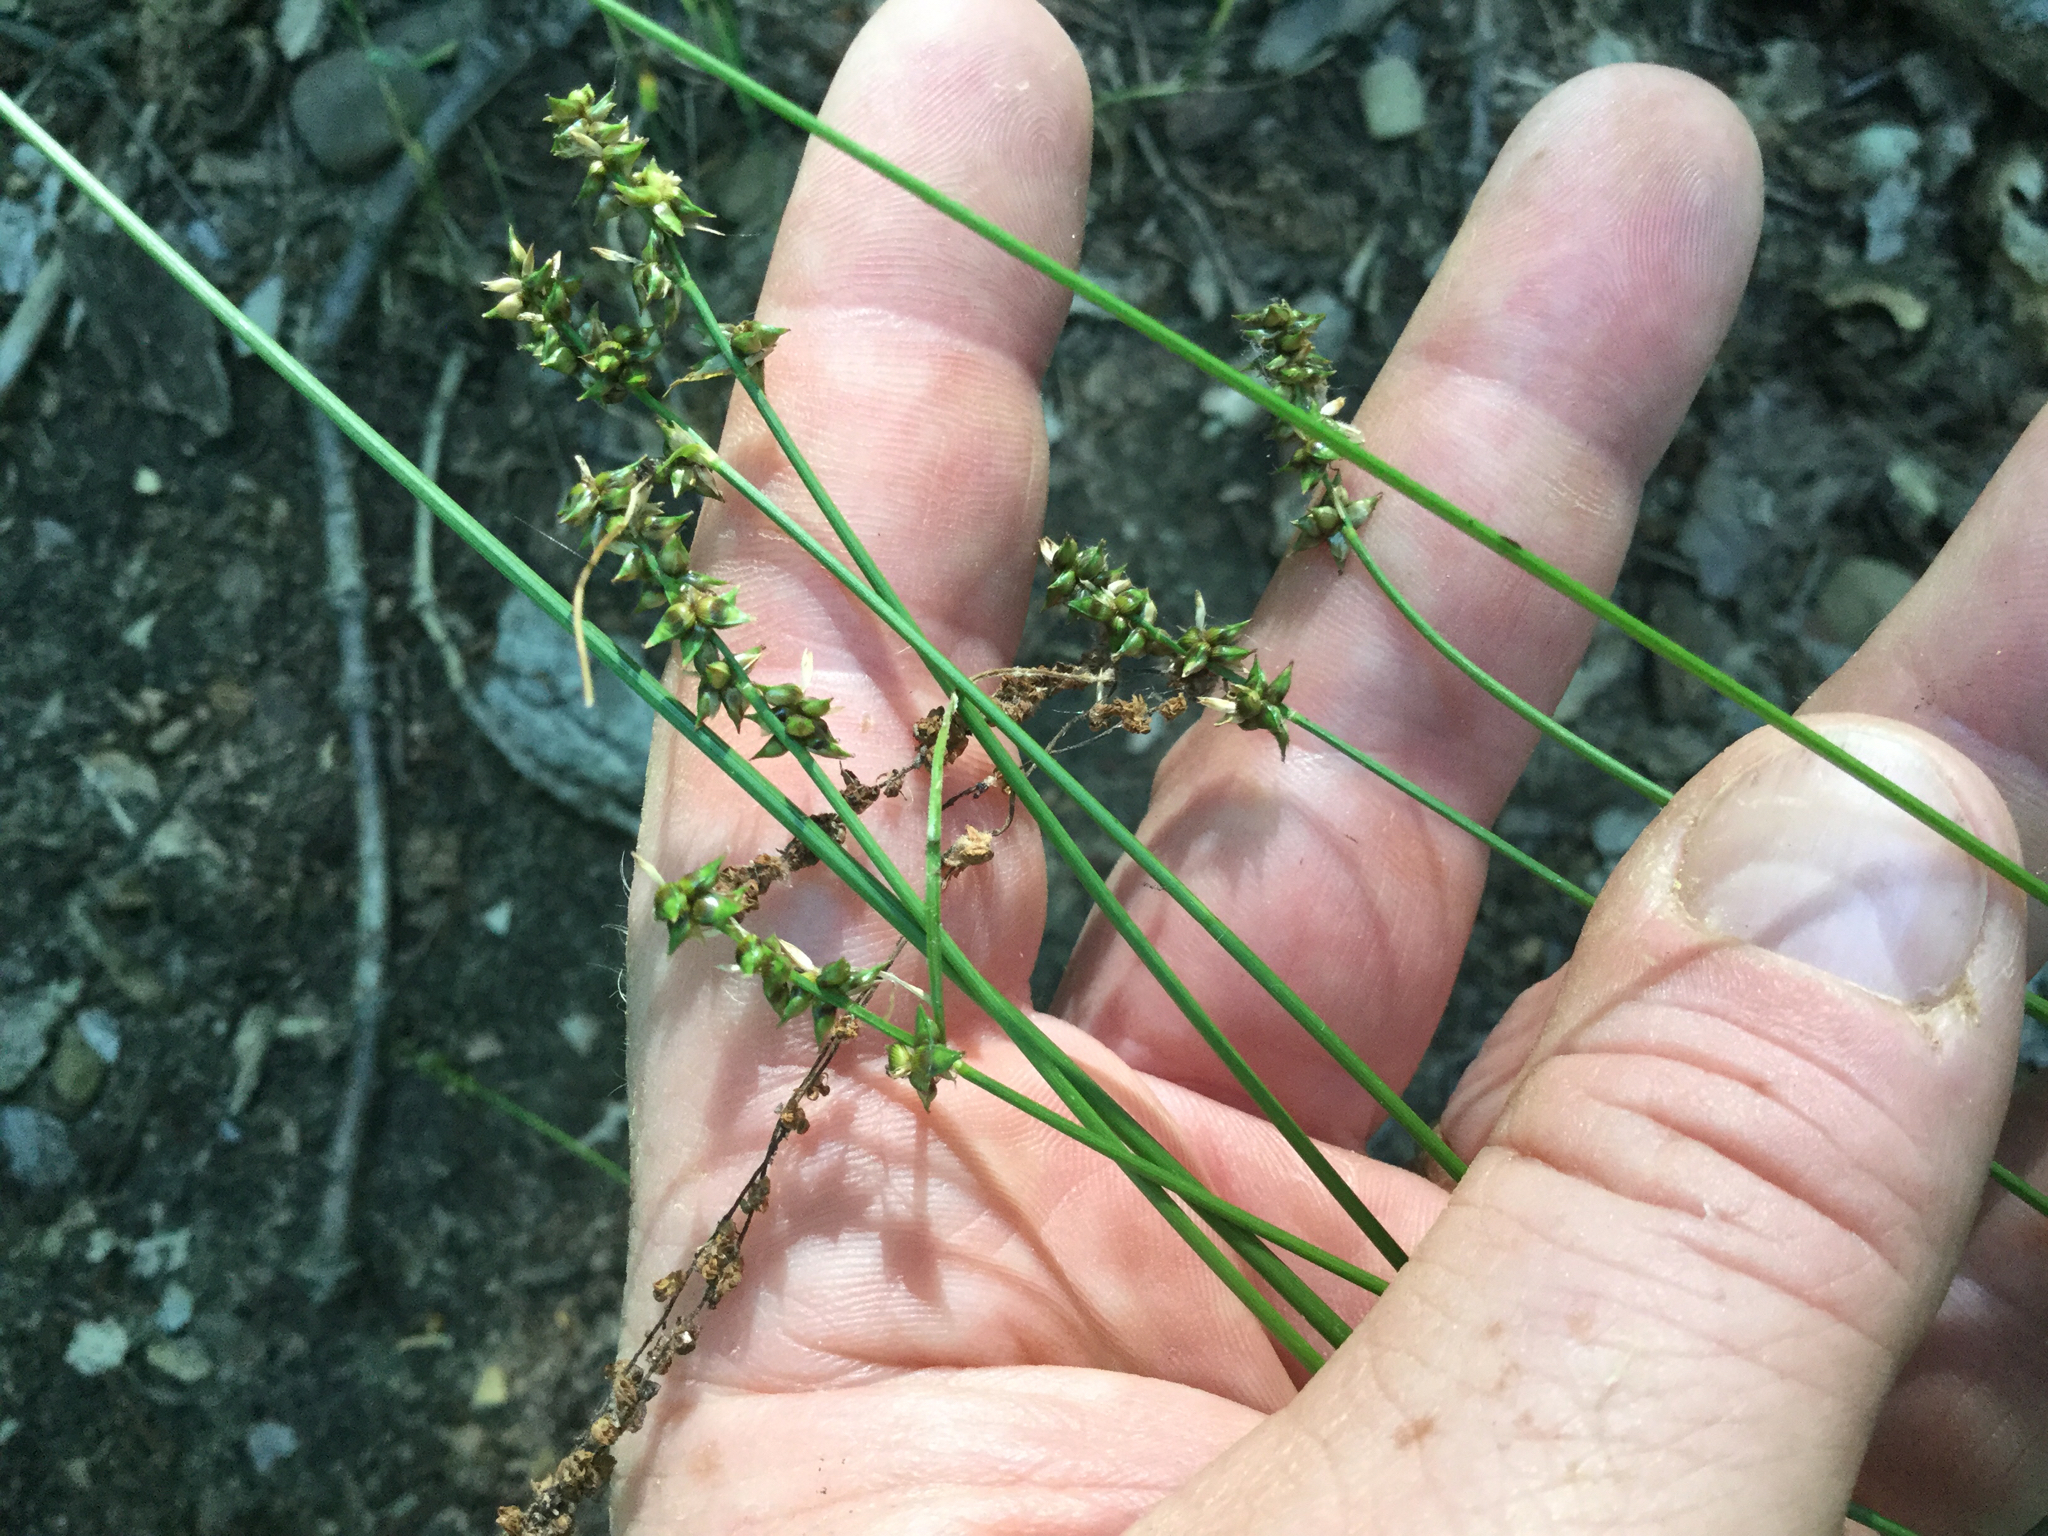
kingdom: Plantae
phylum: Tracheophyta
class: Liliopsida
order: Poales
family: Cyperaceae
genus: Carex
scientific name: Carex retroflexa
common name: Reflexed sedge
